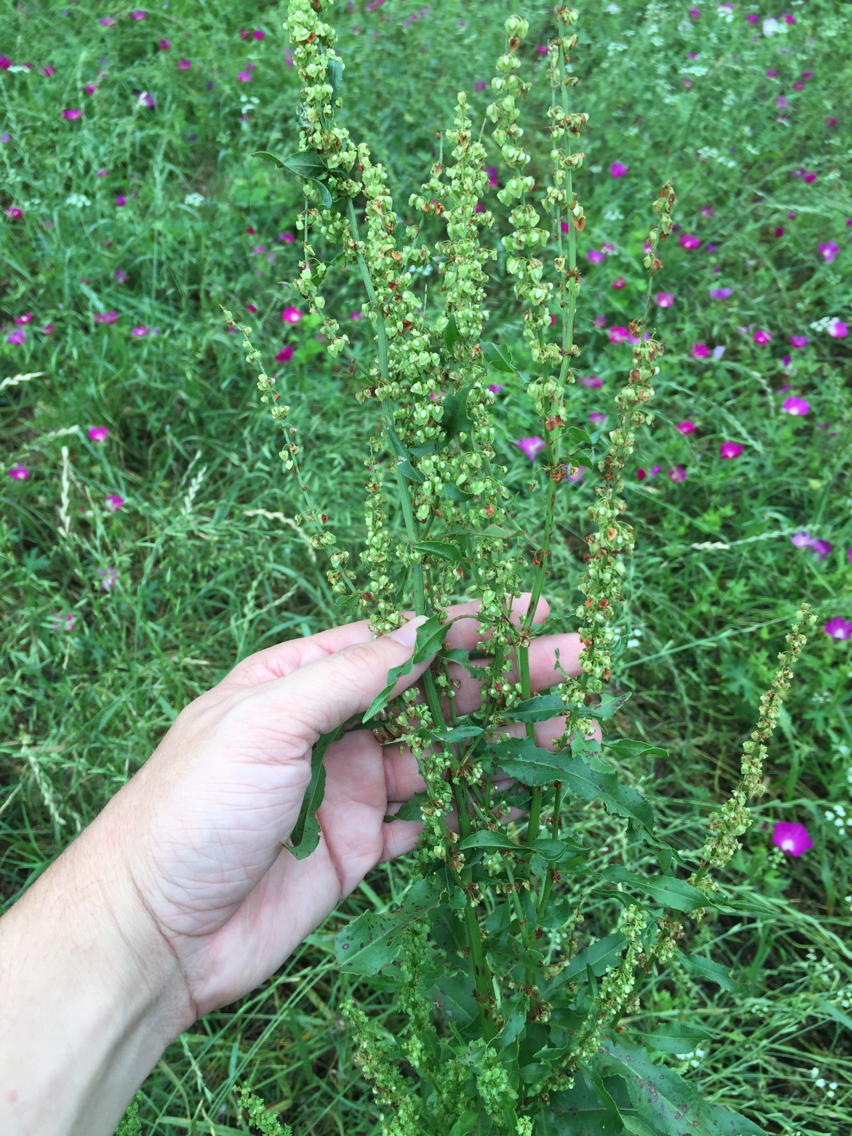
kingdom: Plantae
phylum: Tracheophyta
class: Magnoliopsida
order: Caryophyllales
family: Polygonaceae
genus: Rumex
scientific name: Rumex crispus
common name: Curled dock
